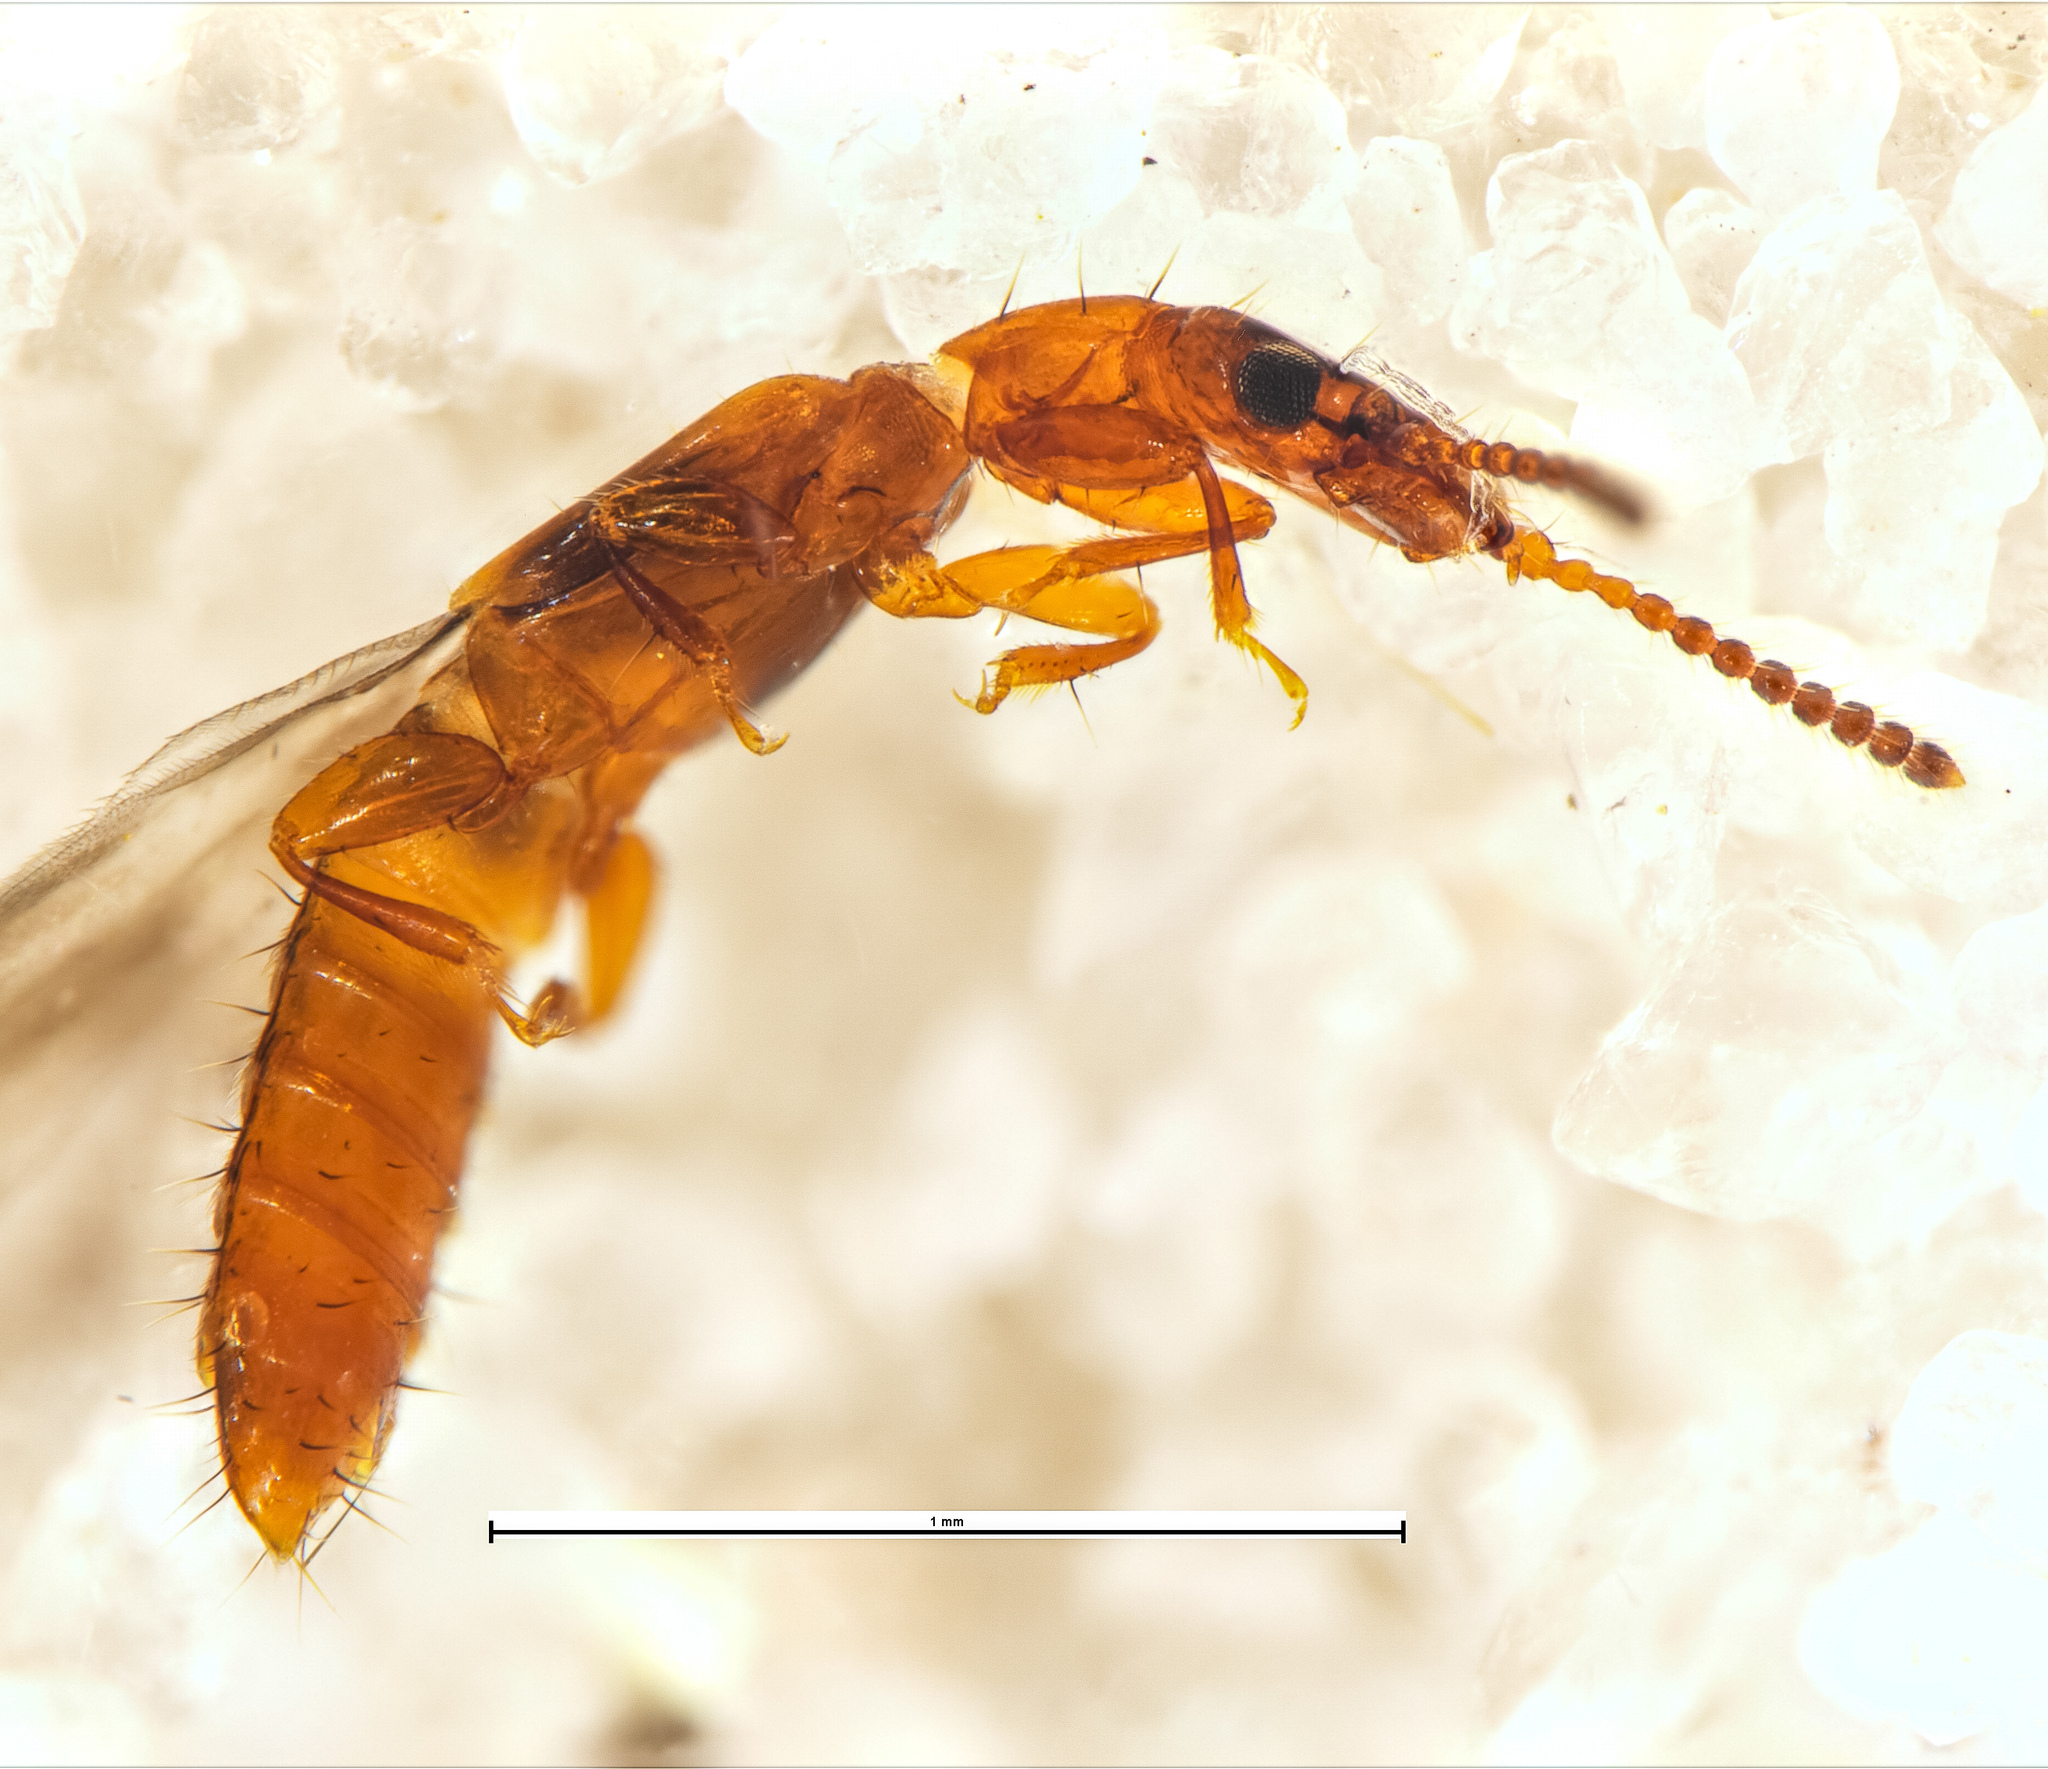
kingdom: Animalia
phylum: Arthropoda
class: Insecta
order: Coleoptera
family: Staphylinidae
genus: Zeoleusis
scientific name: Zeoleusis virgula
